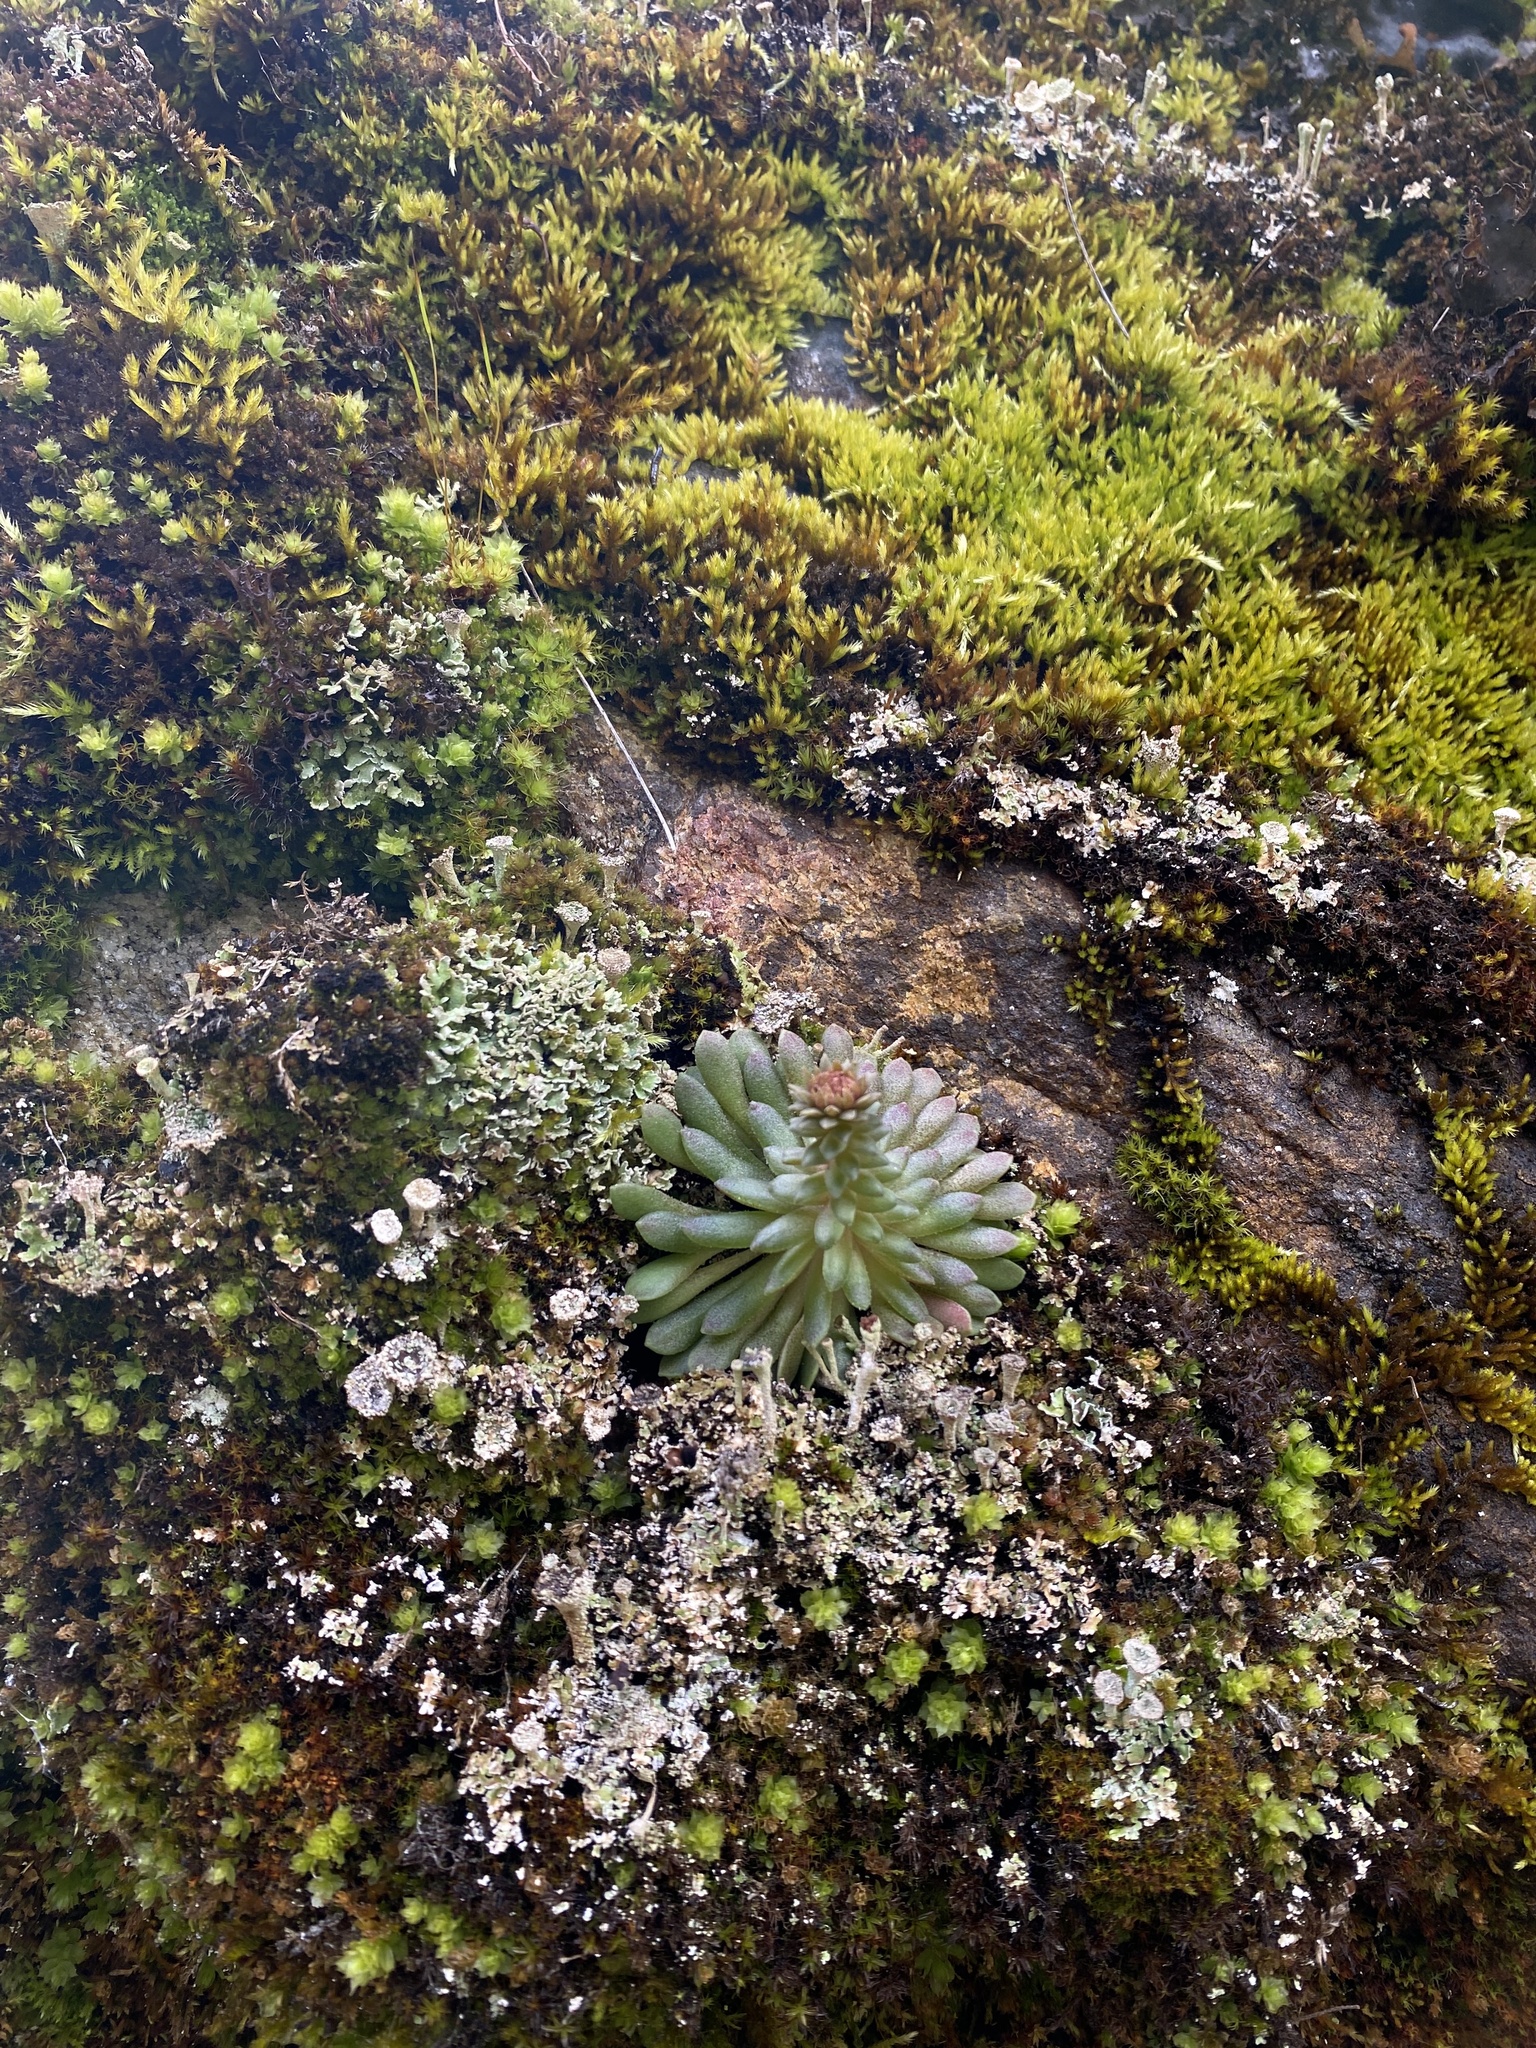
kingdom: Plantae
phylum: Tracheophyta
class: Magnoliopsida
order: Saxifragales
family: Crassulaceae
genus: Sedum
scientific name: Sedum valens
